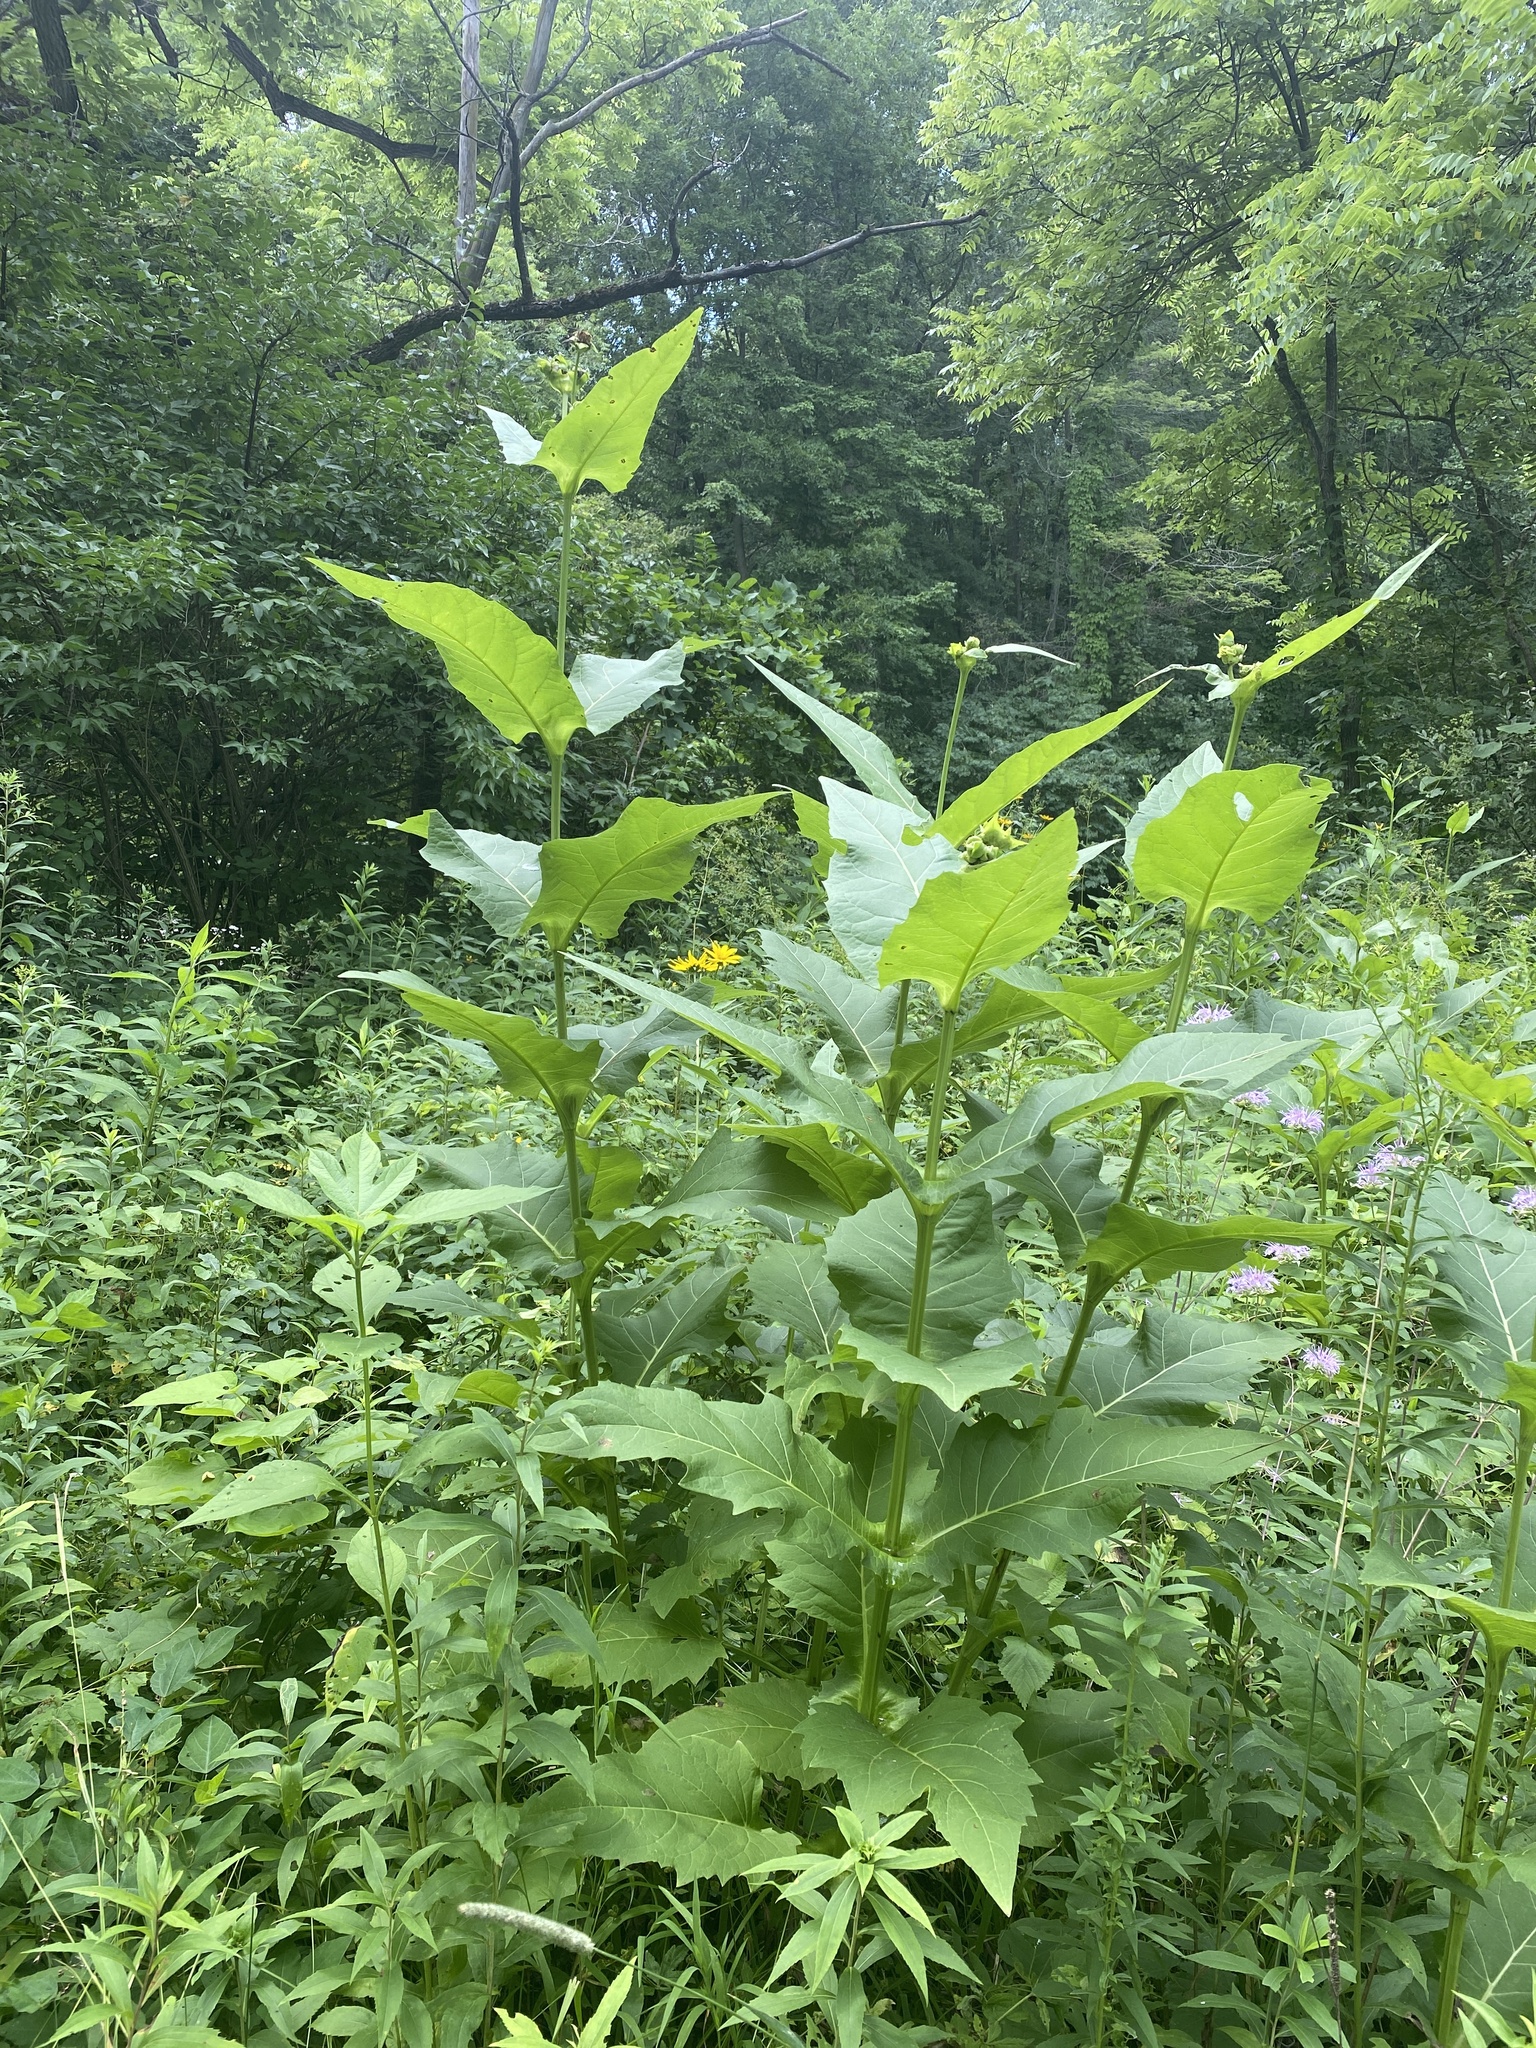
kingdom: Plantae
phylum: Tracheophyta
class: Magnoliopsida
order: Asterales
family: Asteraceae
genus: Silphium
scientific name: Silphium perfoliatum
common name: Cup-plant
